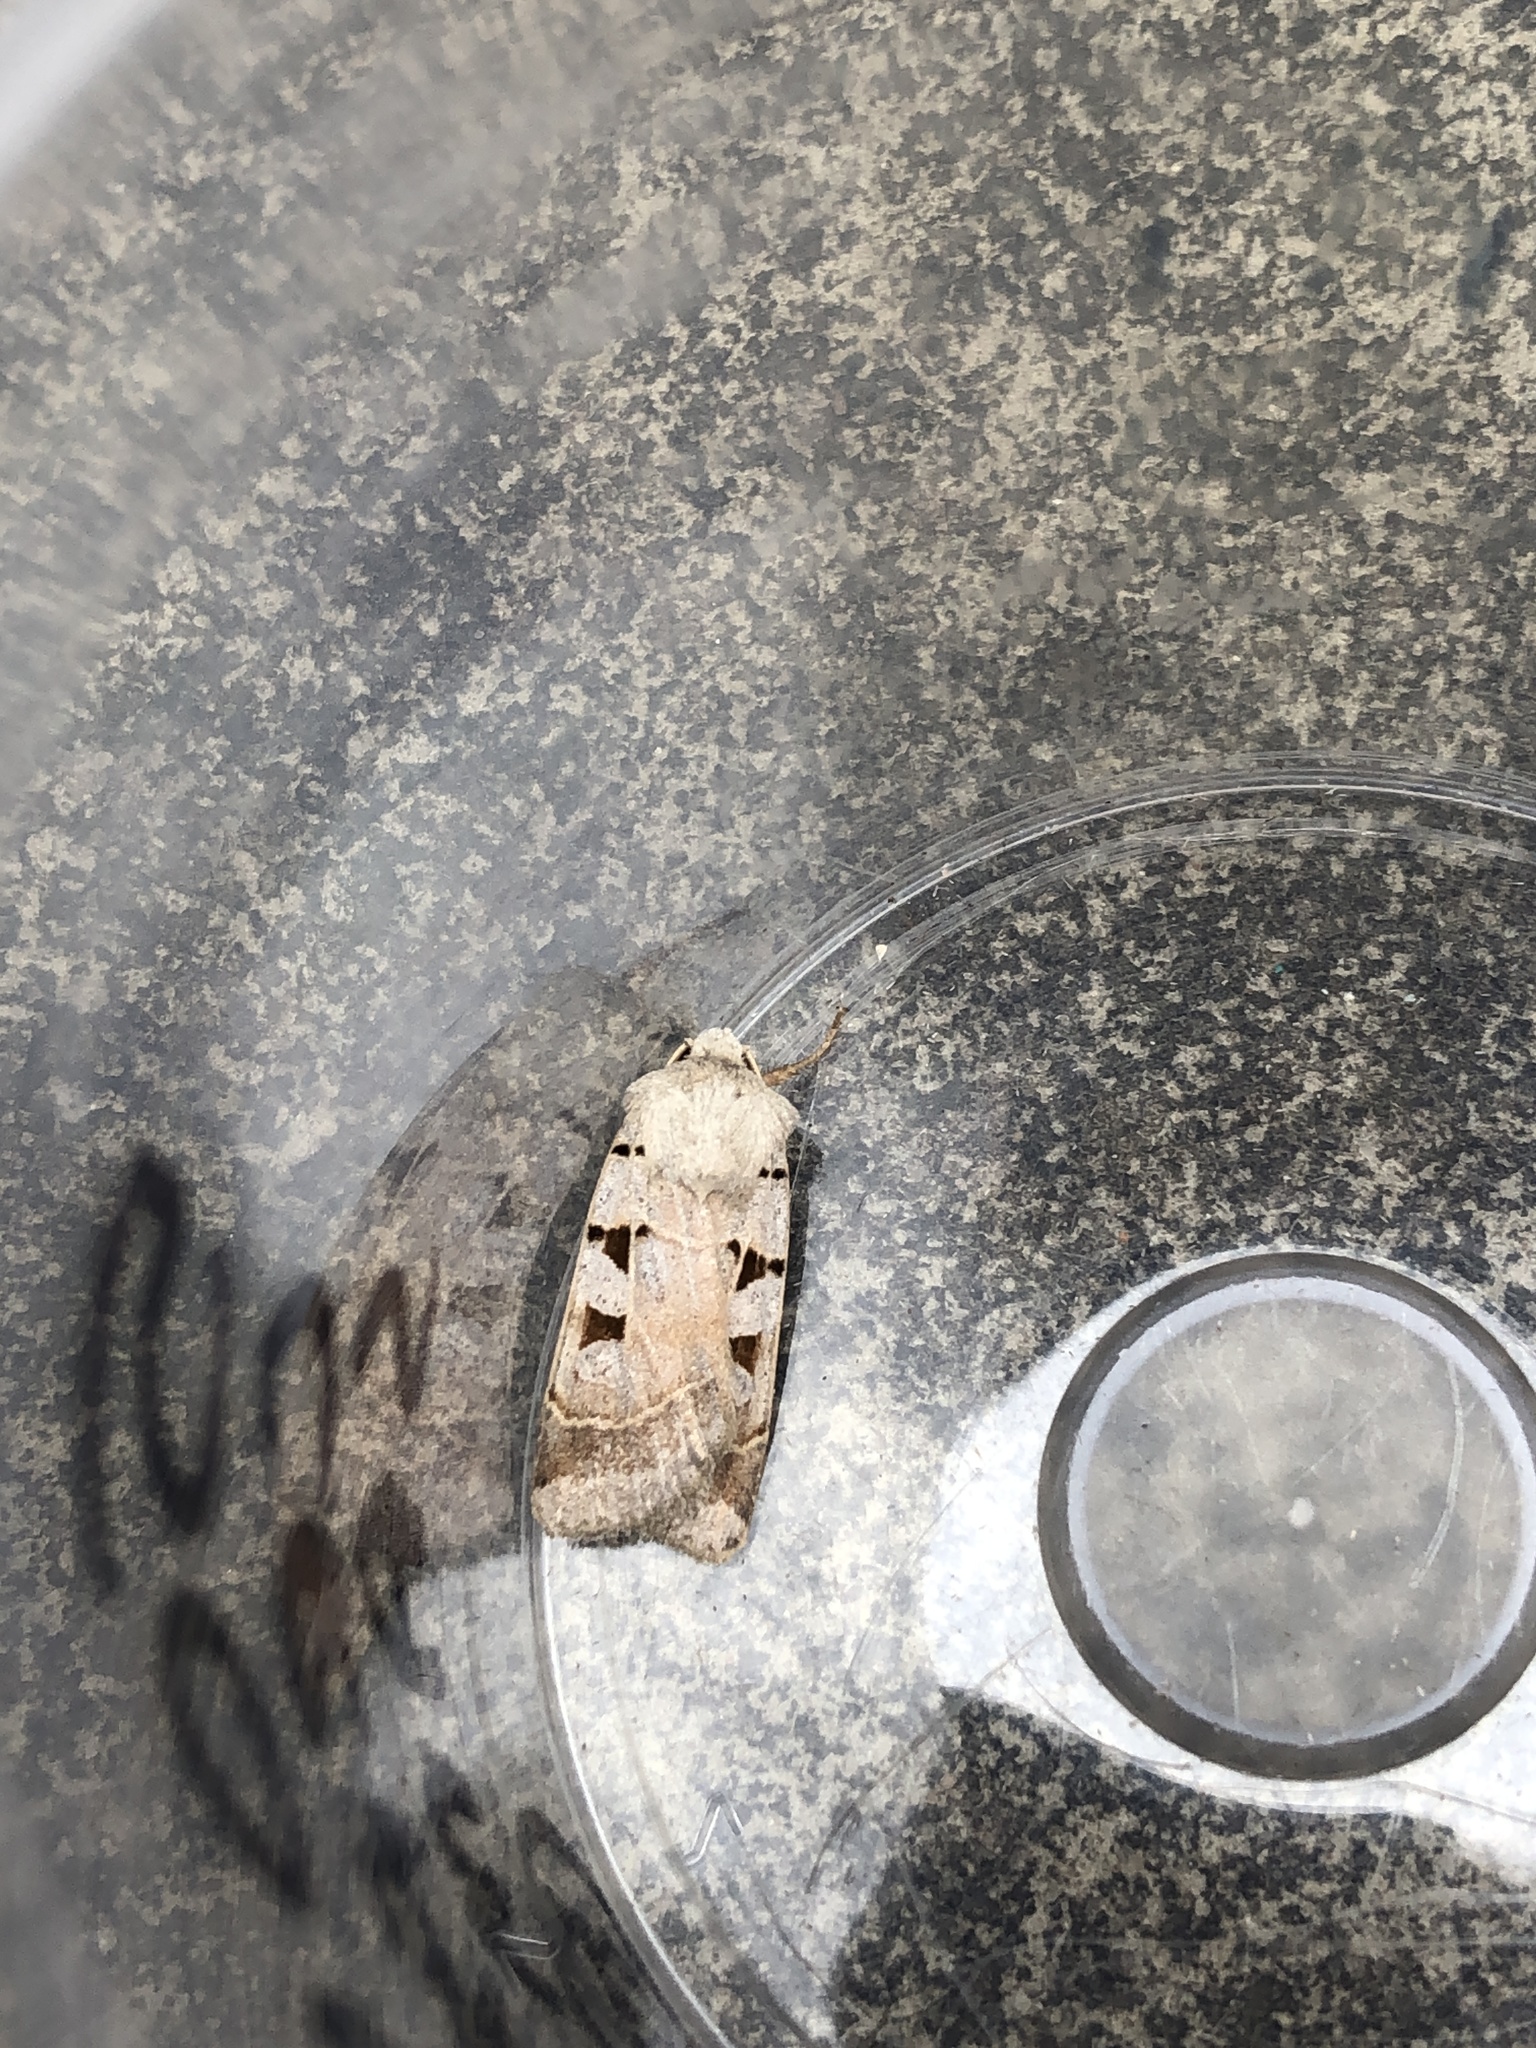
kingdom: Animalia
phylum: Arthropoda
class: Insecta
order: Lepidoptera
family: Noctuidae
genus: Eugnorisma
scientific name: Eugnorisma glareosa
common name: Autumnal rustic
